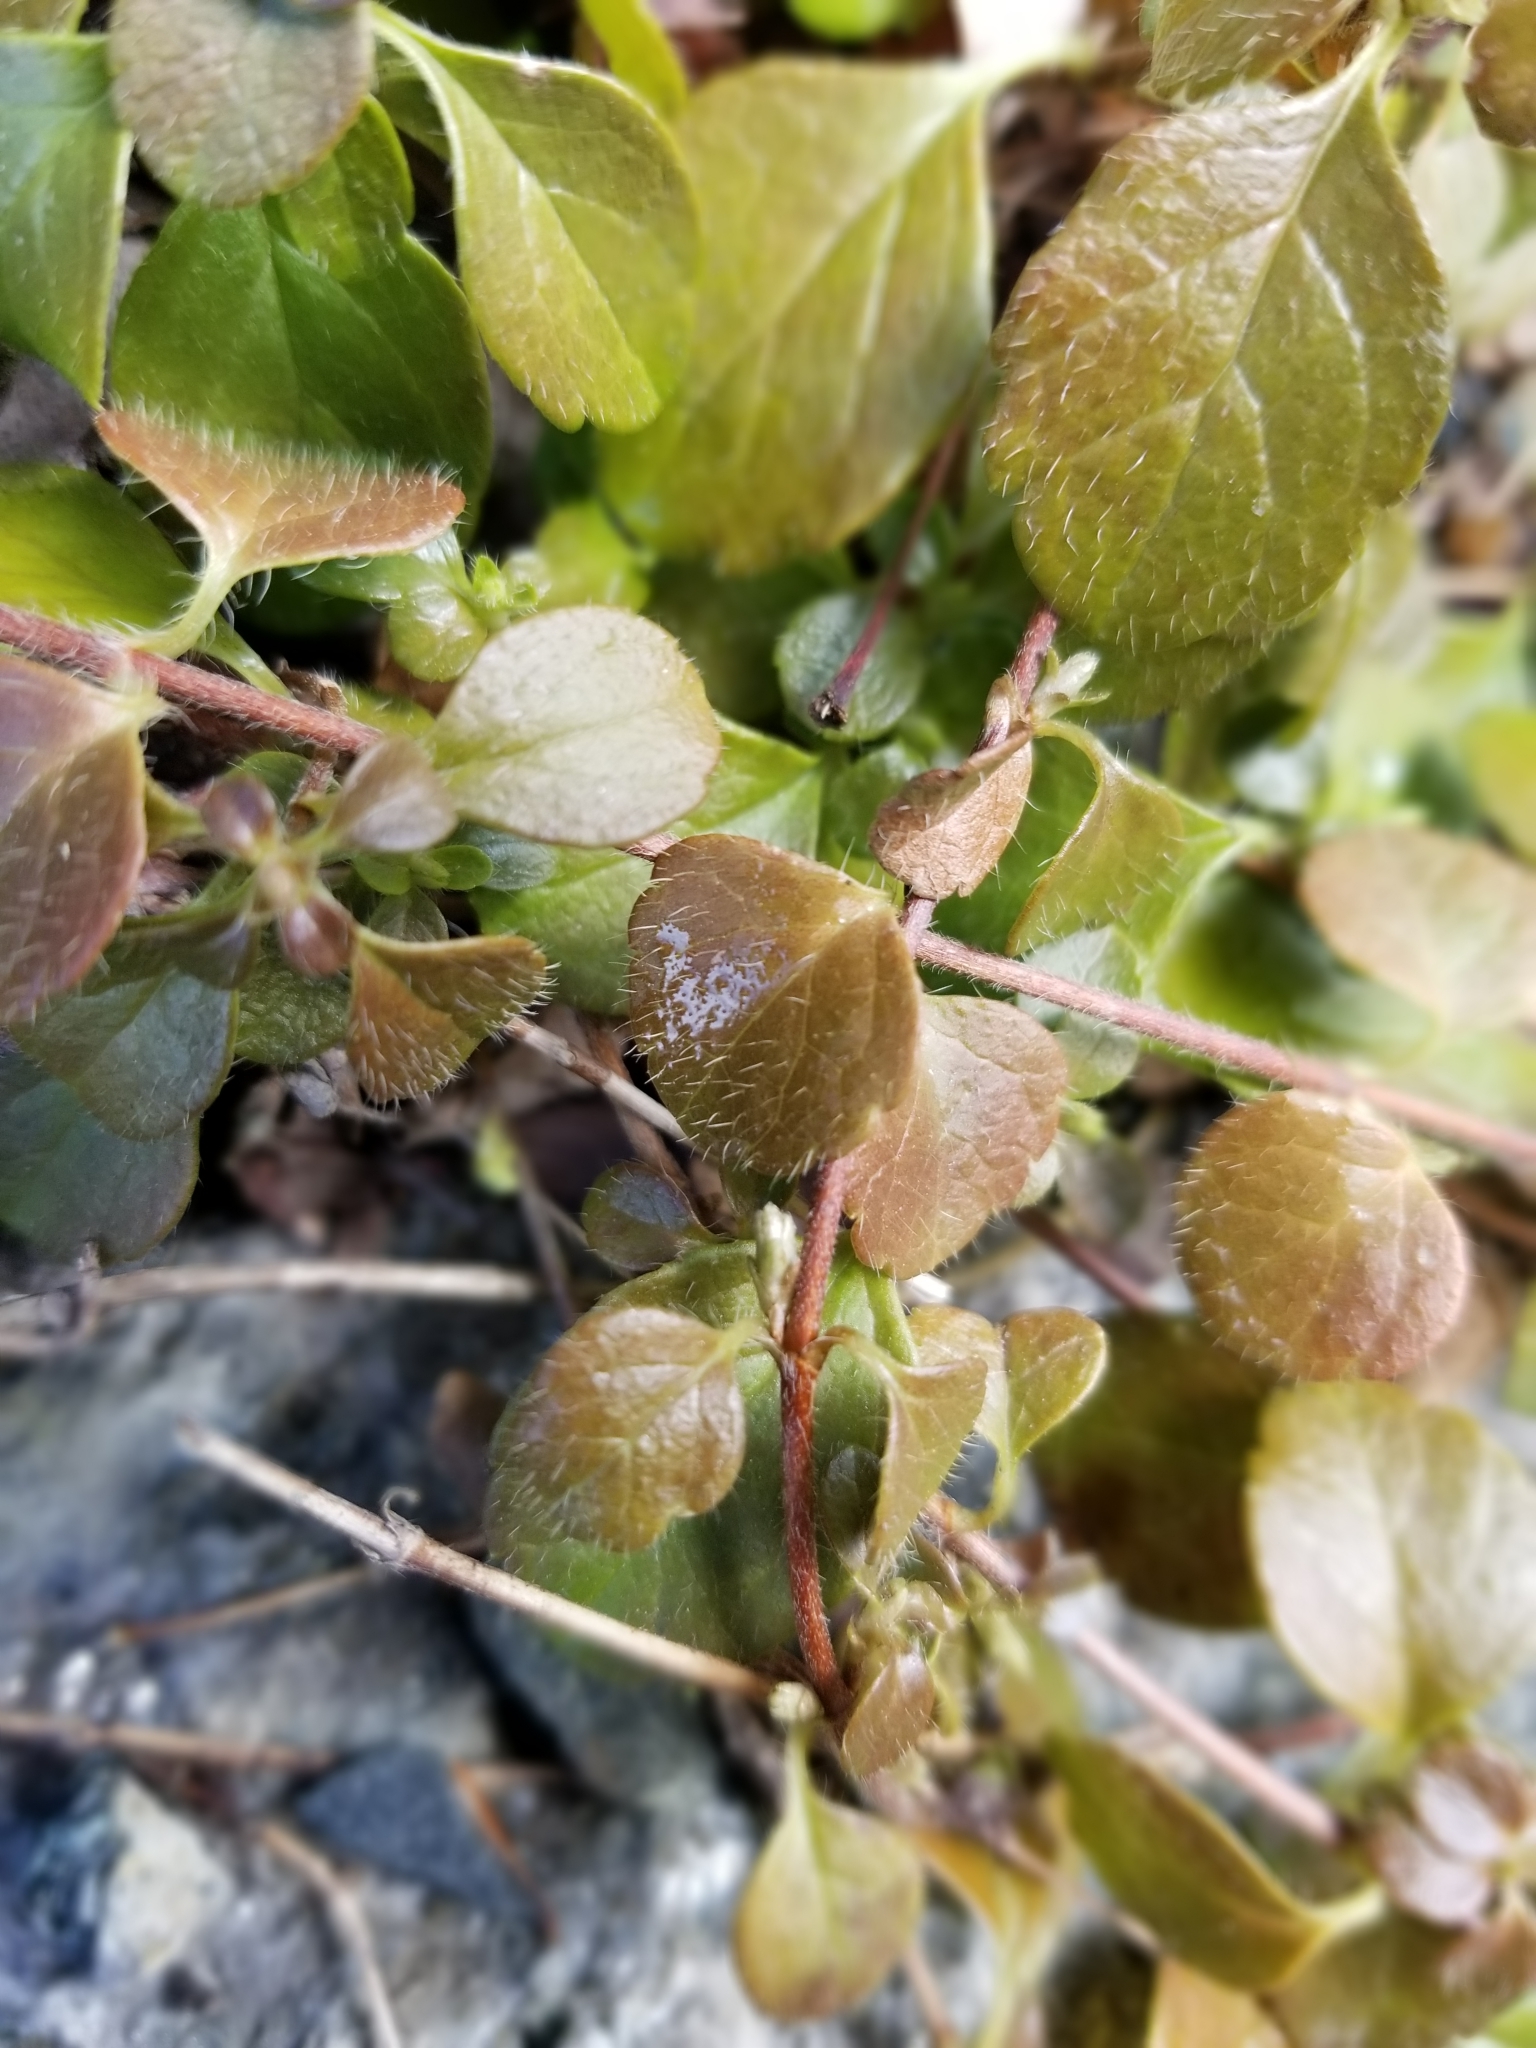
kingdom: Plantae
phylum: Tracheophyta
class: Magnoliopsida
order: Dipsacales
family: Caprifoliaceae
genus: Linnaea
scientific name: Linnaea borealis
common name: Twinflower
